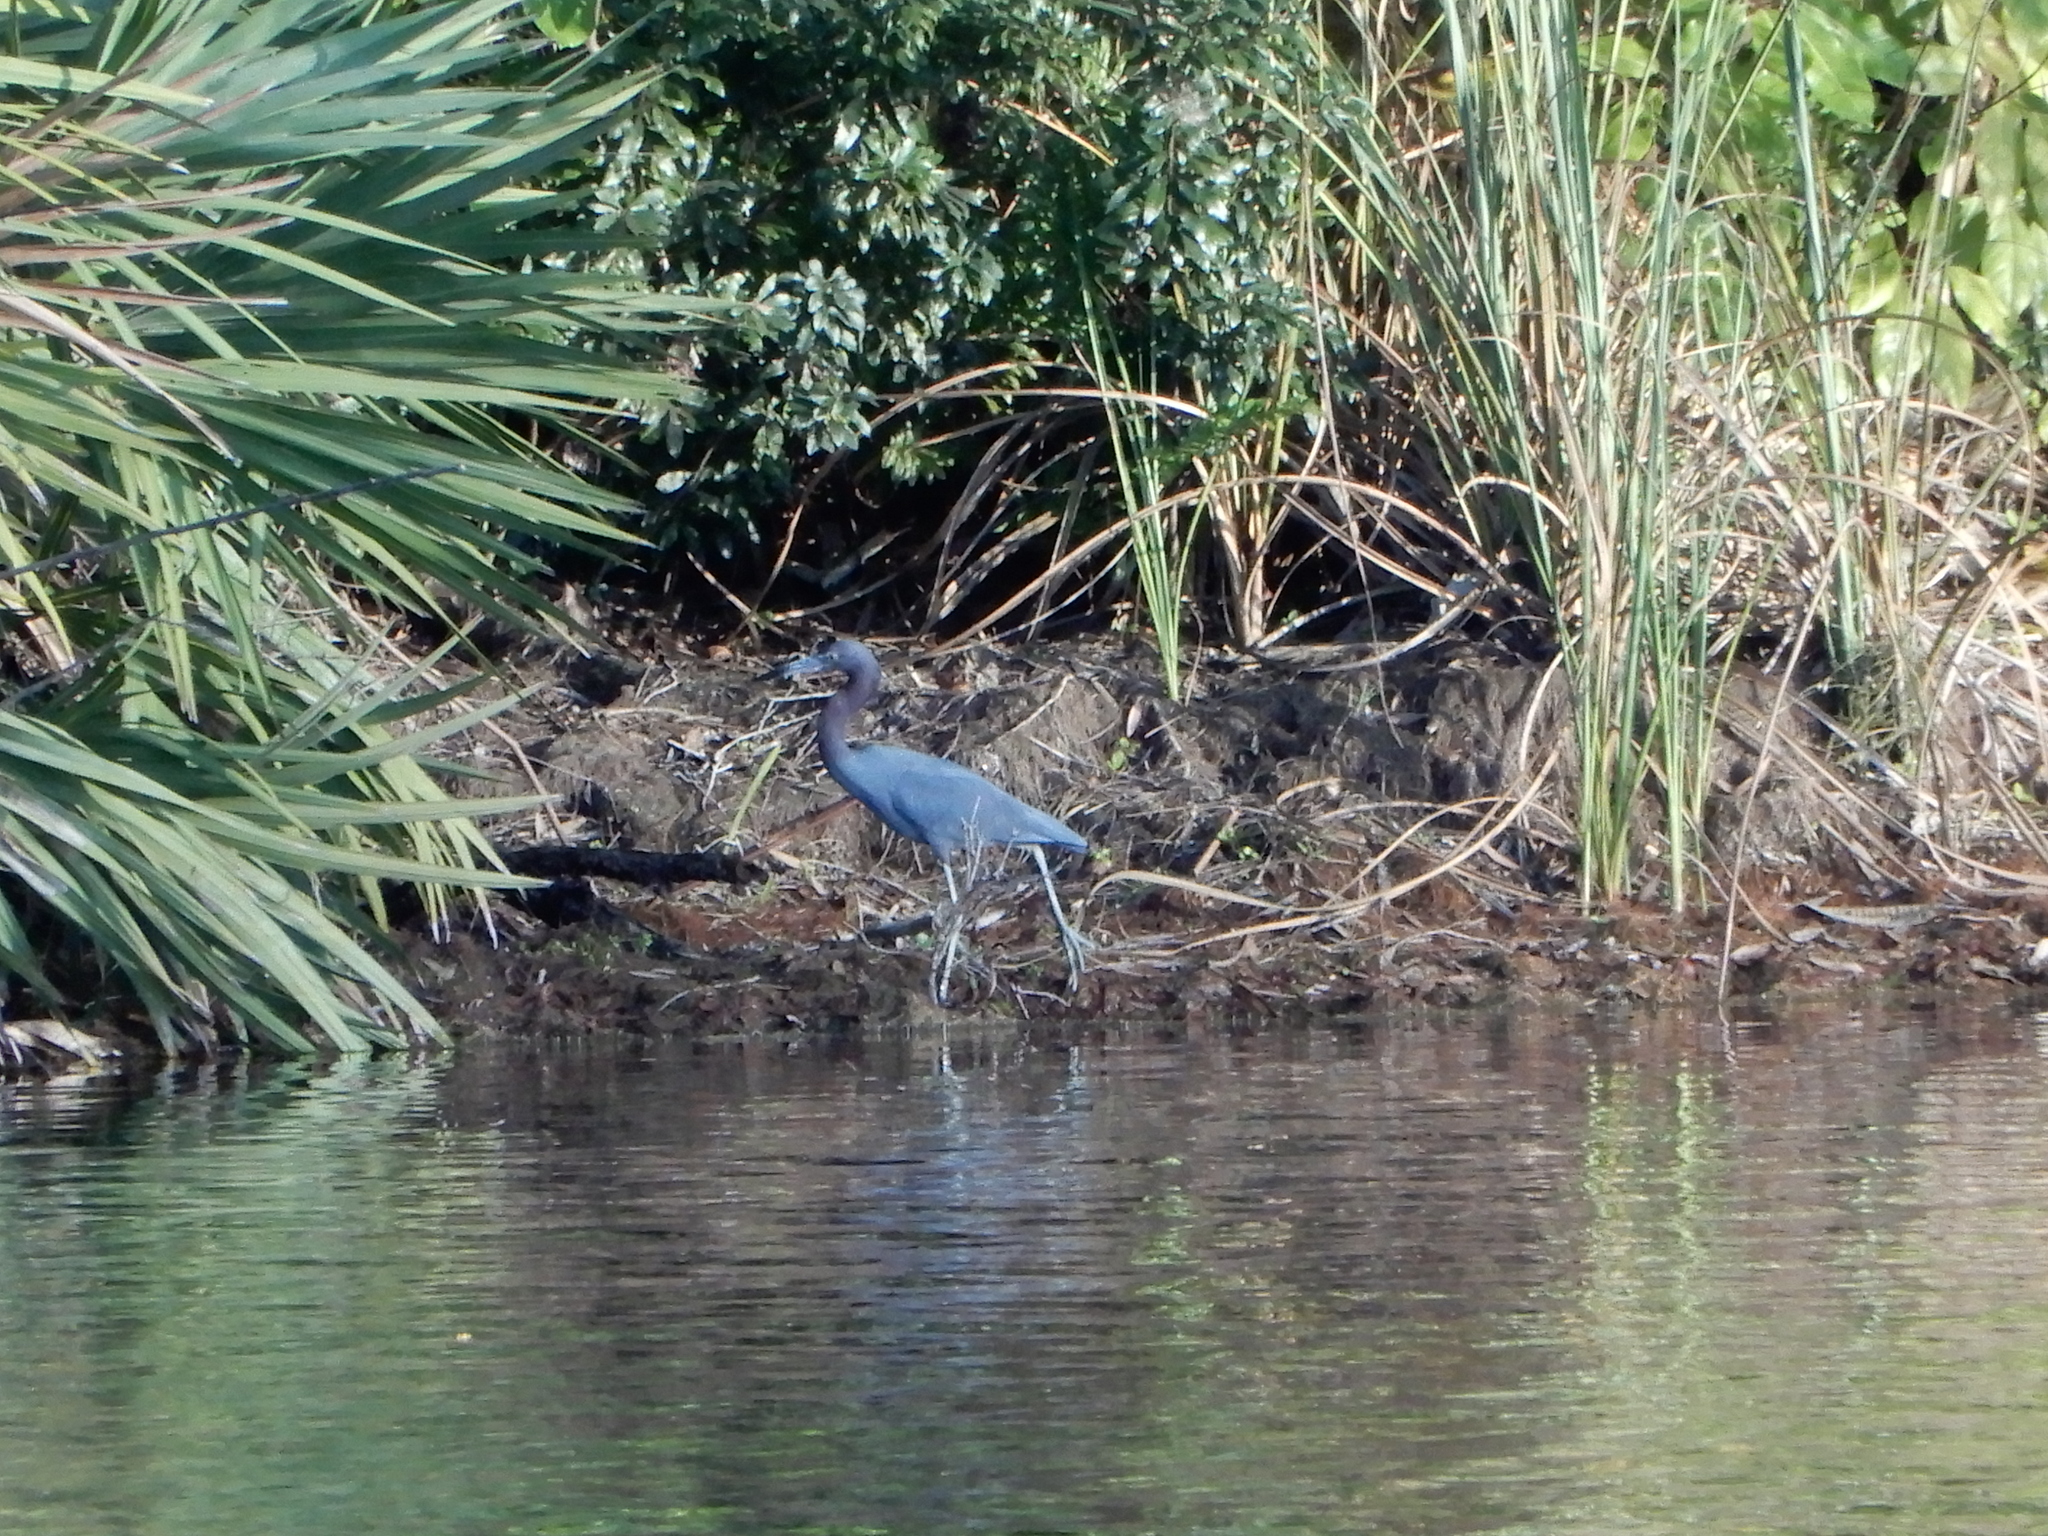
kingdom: Animalia
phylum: Chordata
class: Aves
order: Pelecaniformes
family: Ardeidae
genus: Egretta
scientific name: Egretta caerulea
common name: Little blue heron
